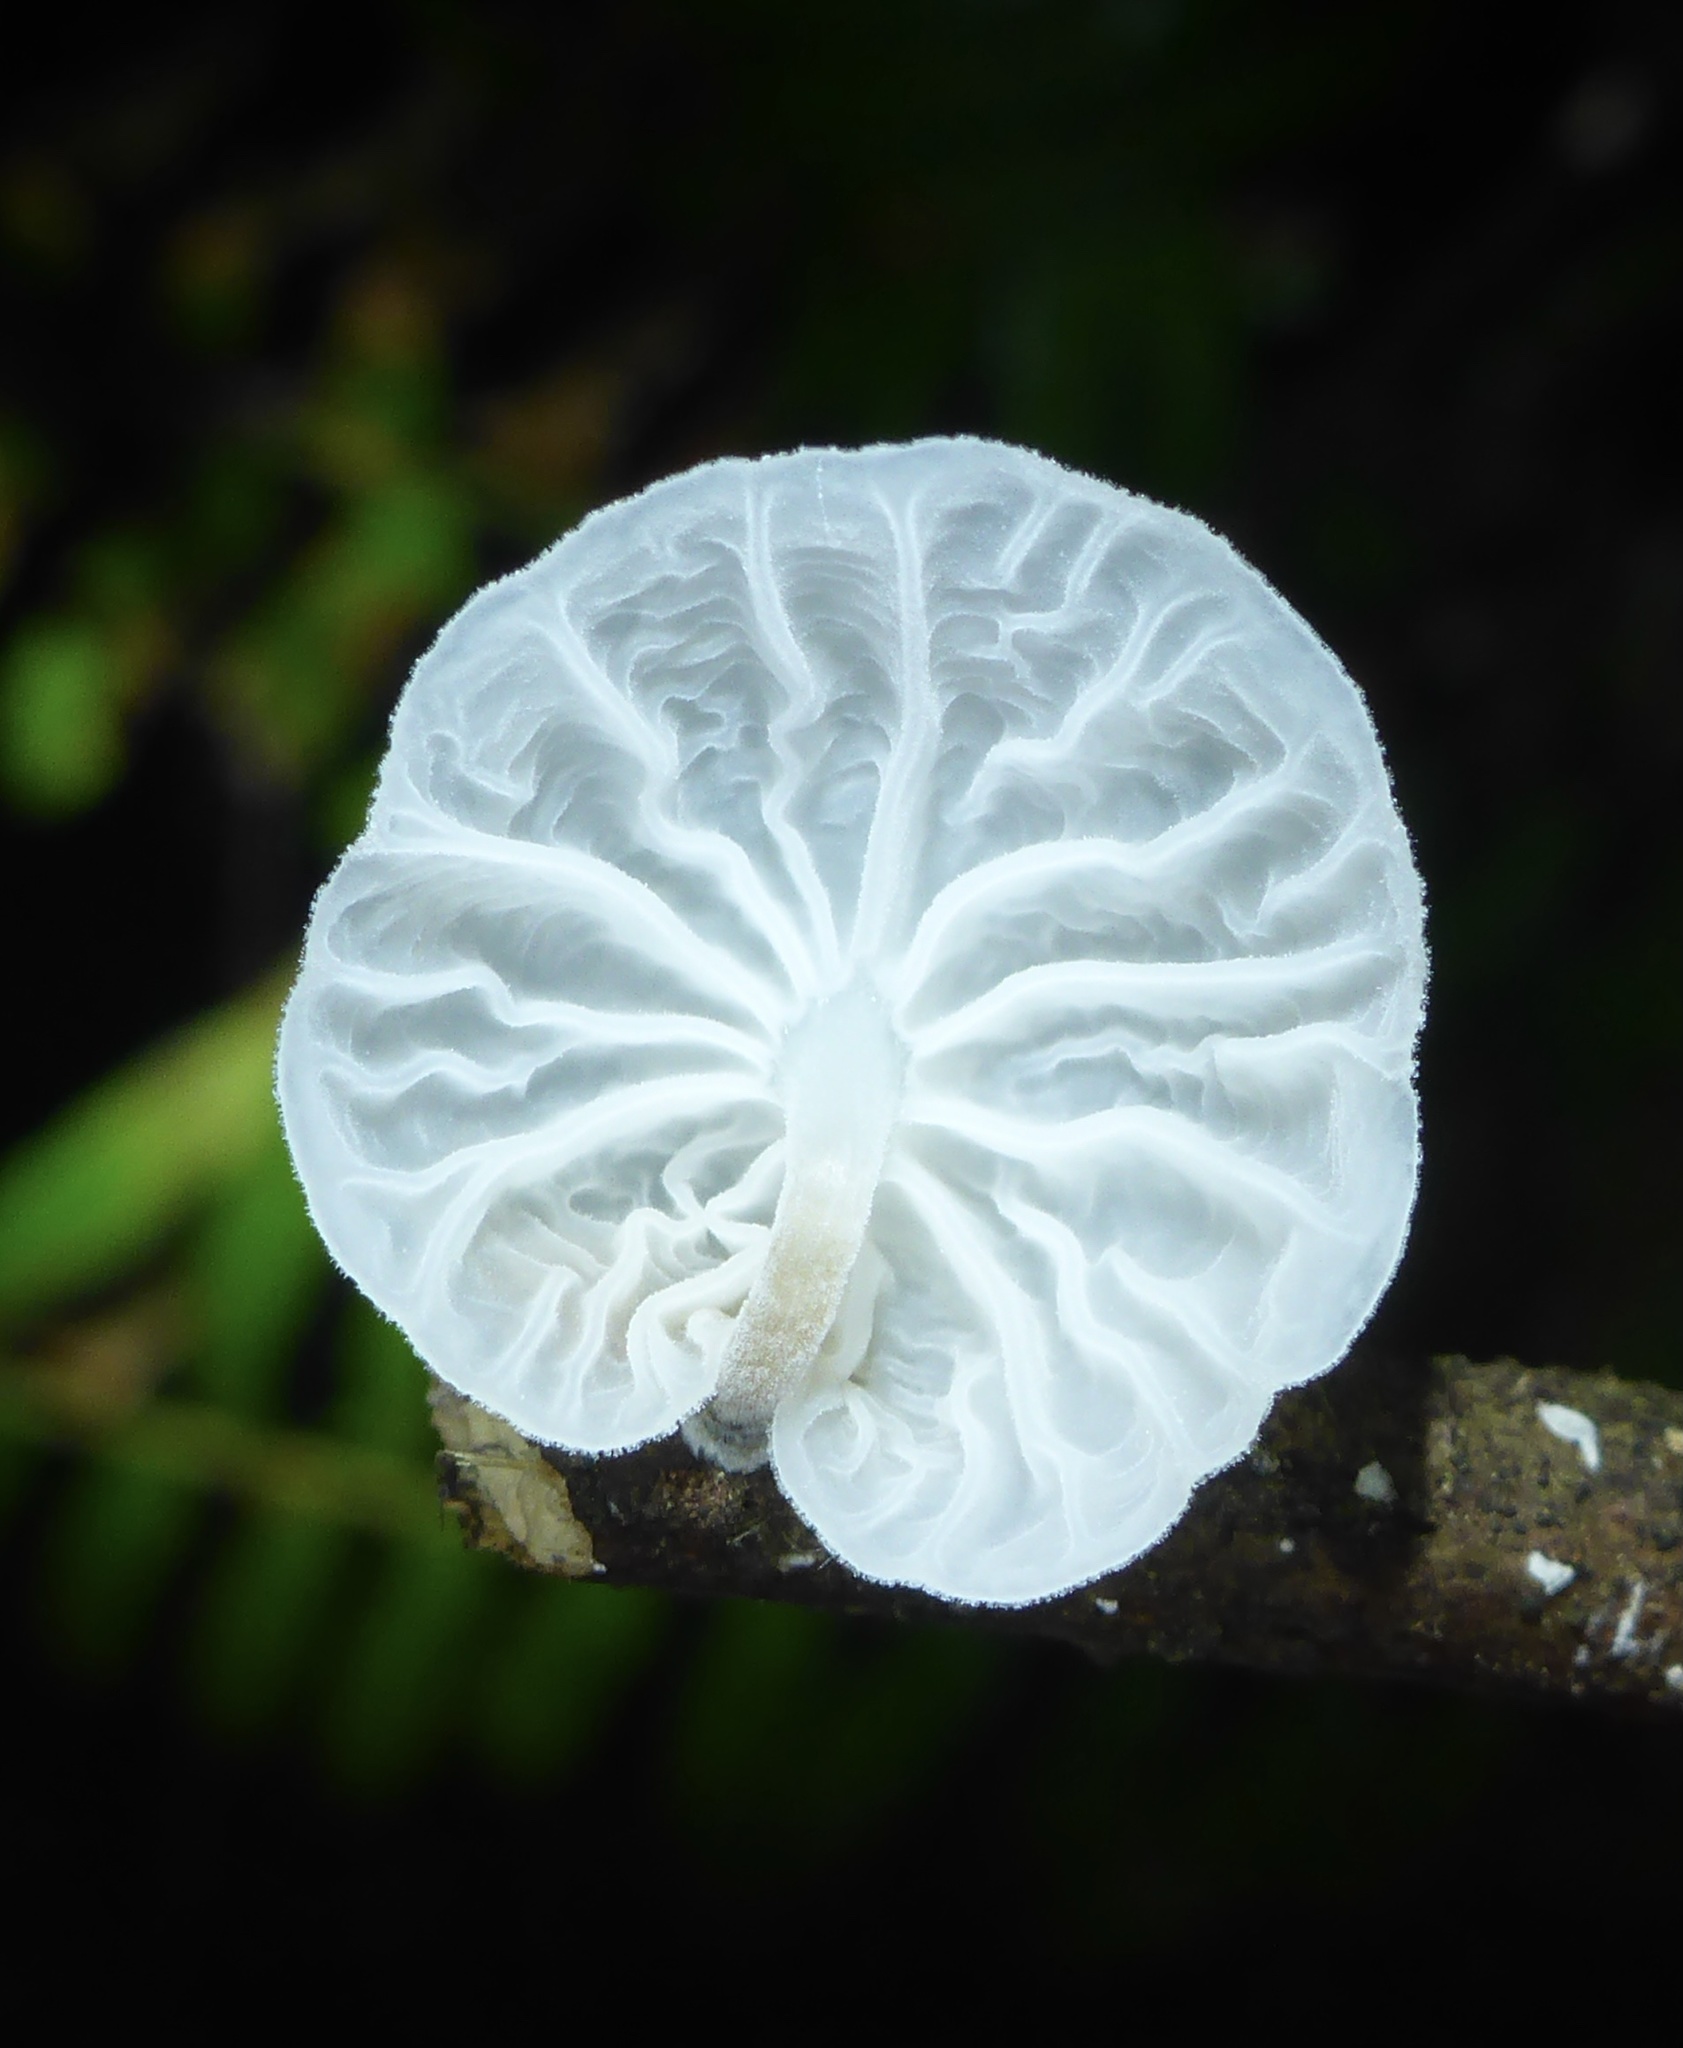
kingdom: Fungi
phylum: Basidiomycota
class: Agaricomycetes
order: Agaricales
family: Omphalotaceae
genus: Marasmiellus
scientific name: Marasmiellus candidus
